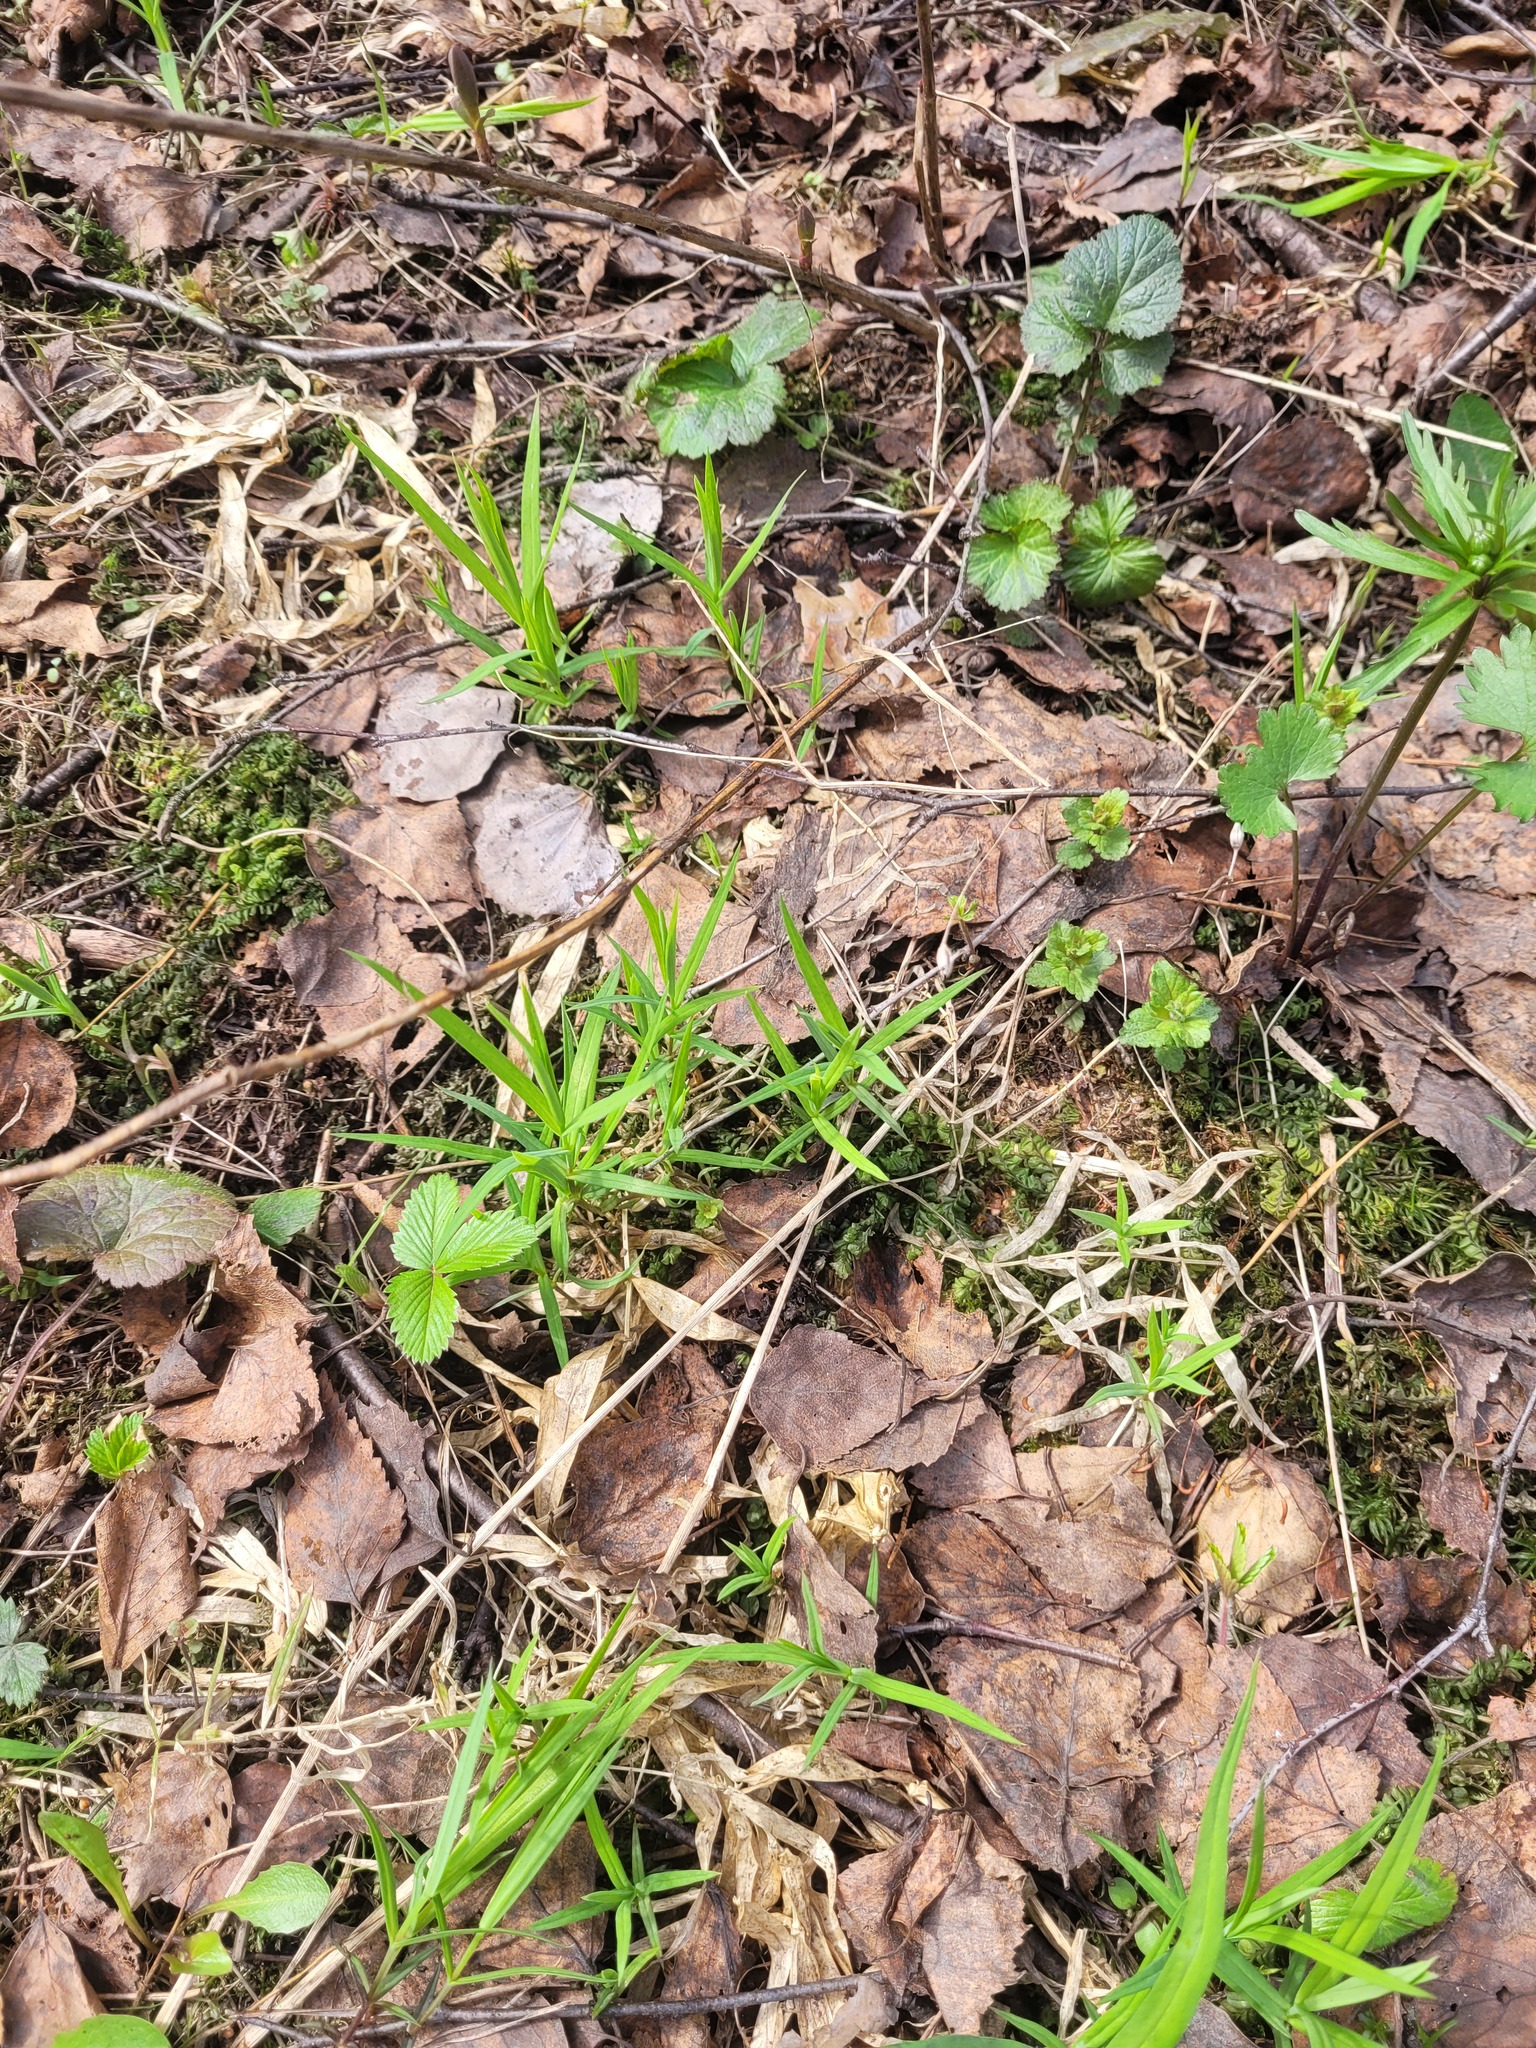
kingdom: Plantae
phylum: Tracheophyta
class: Magnoliopsida
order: Caryophyllales
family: Caryophyllaceae
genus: Rabelera
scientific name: Rabelera holostea
